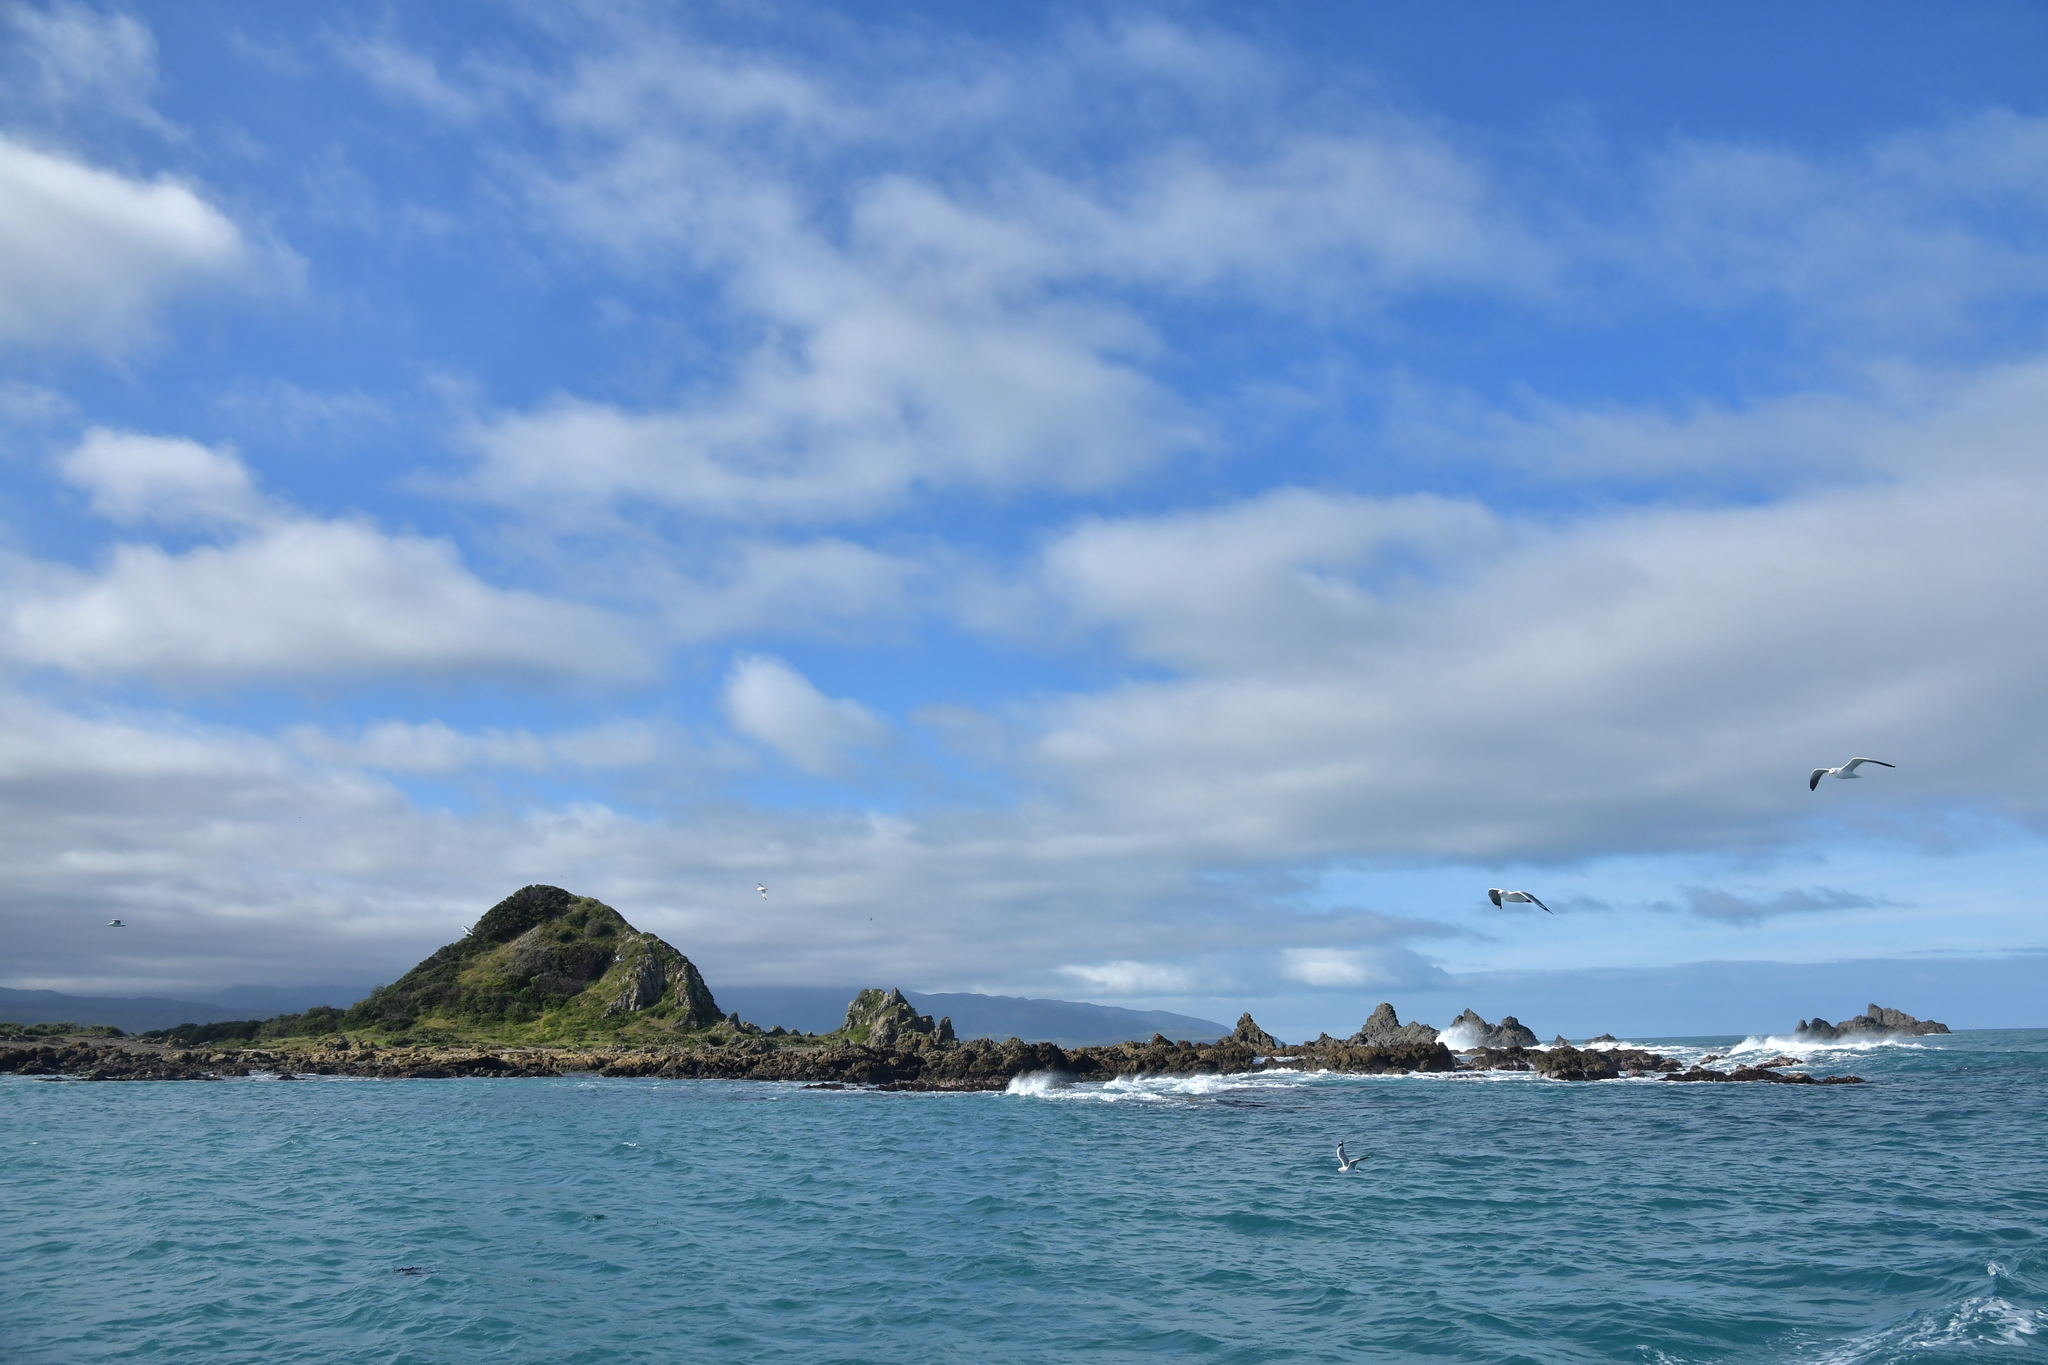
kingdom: Animalia
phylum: Chordata
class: Aves
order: Charadriiformes
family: Laridae
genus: Larus
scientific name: Larus dominicanus
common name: Kelp gull
